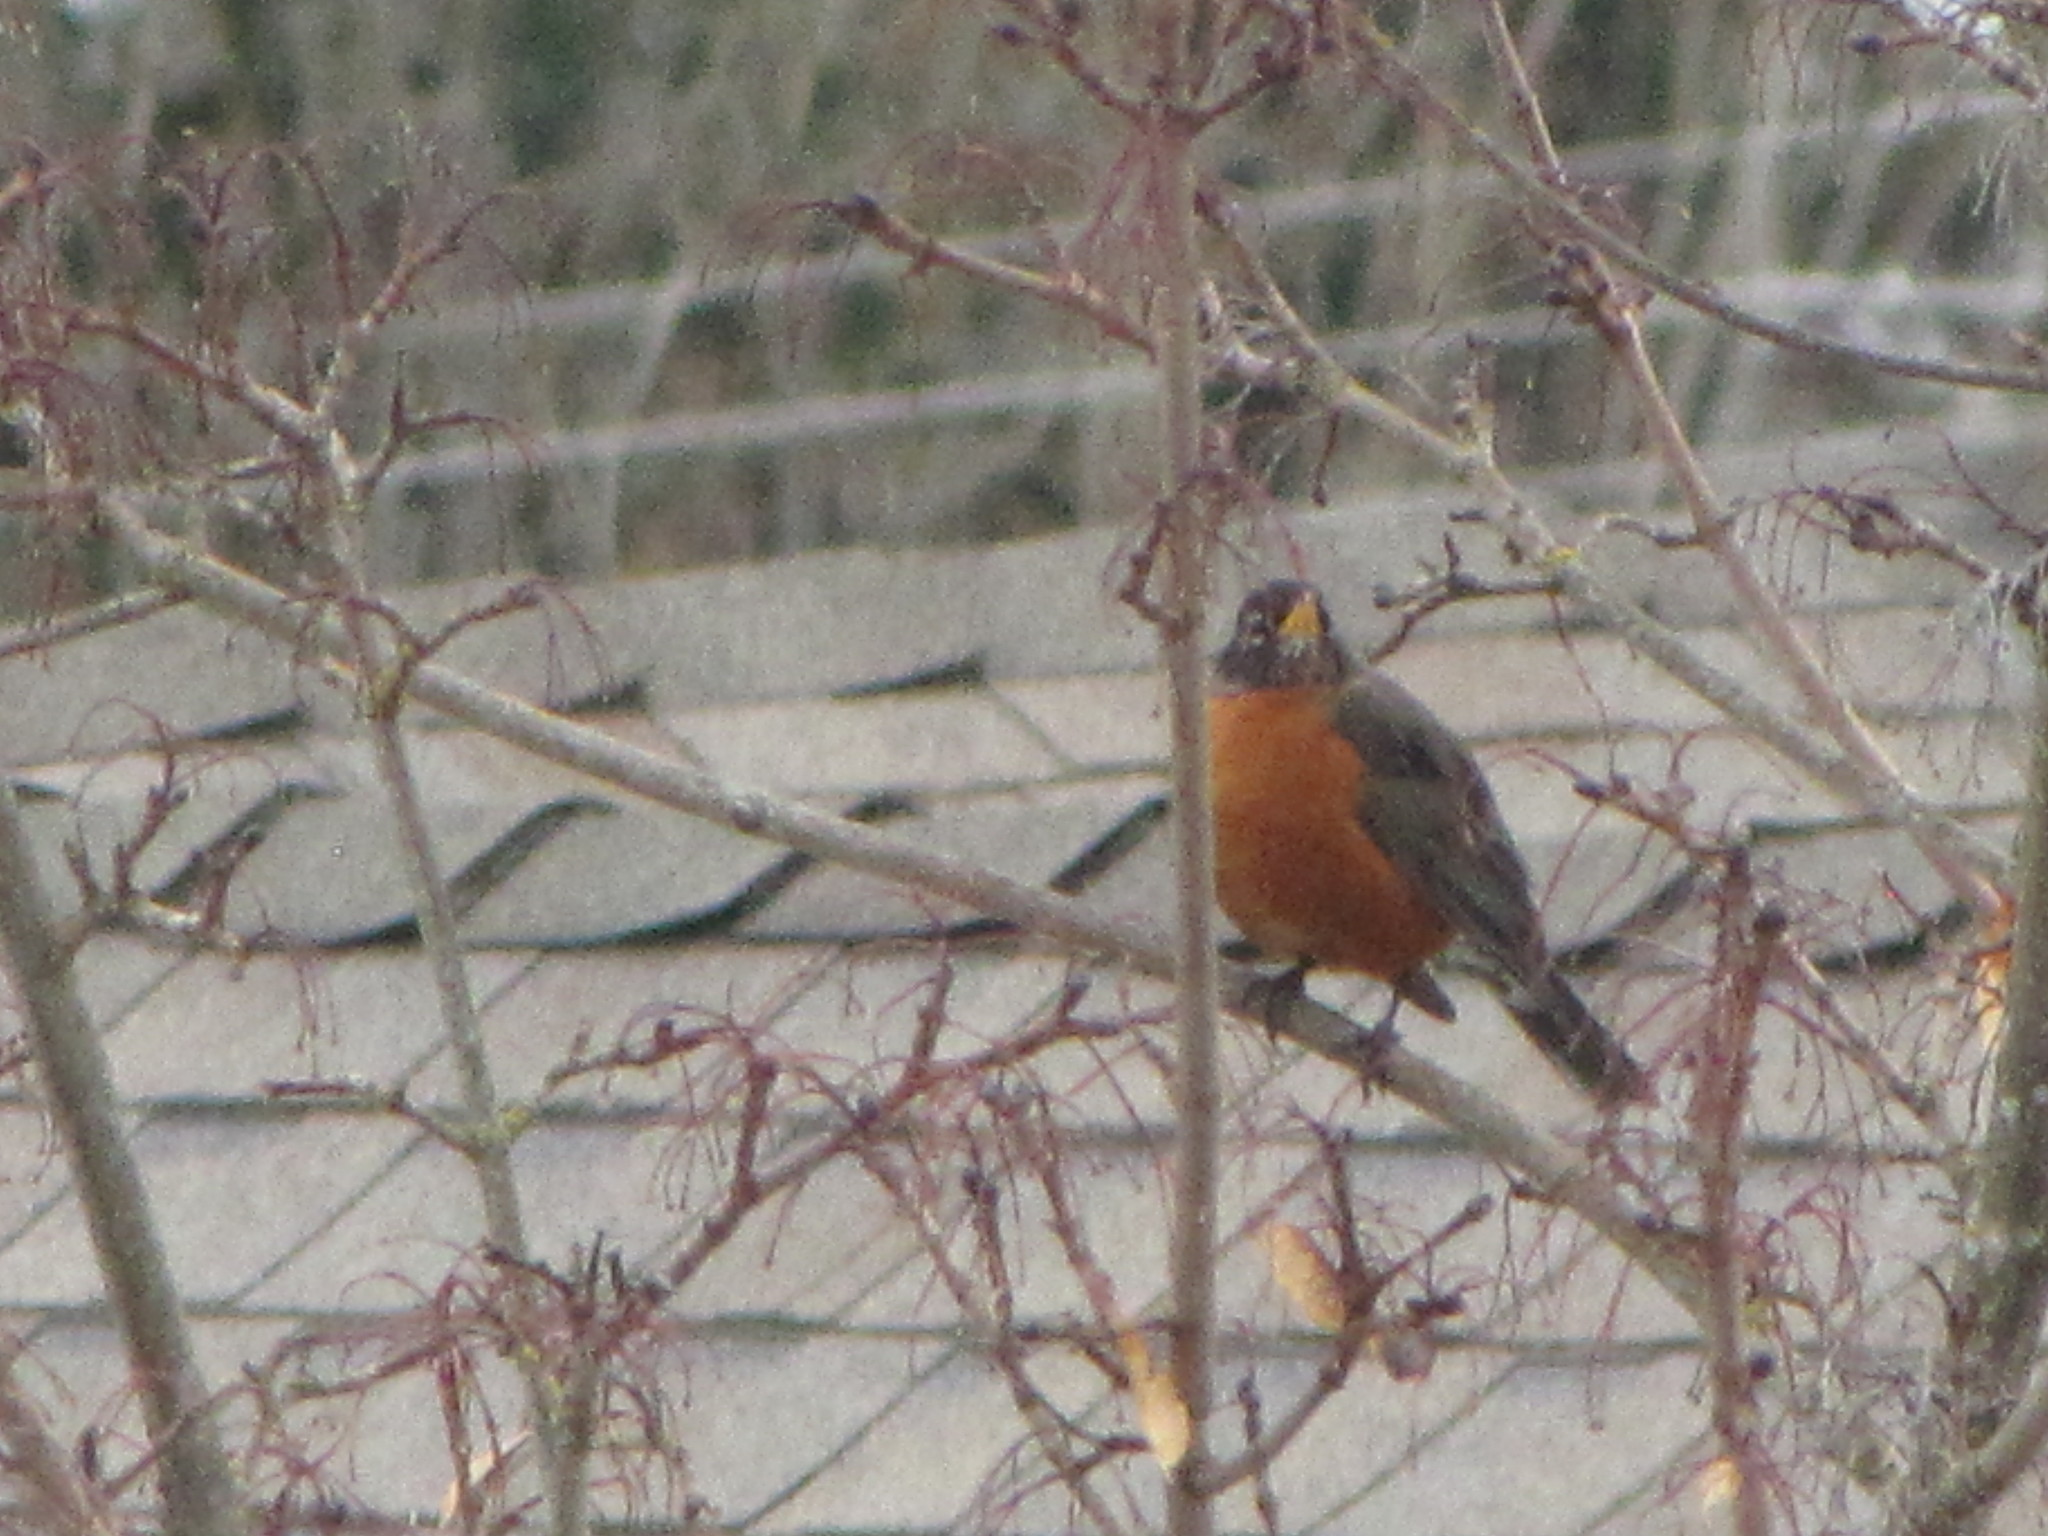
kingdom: Animalia
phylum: Chordata
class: Aves
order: Passeriformes
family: Turdidae
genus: Turdus
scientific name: Turdus migratorius
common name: American robin
